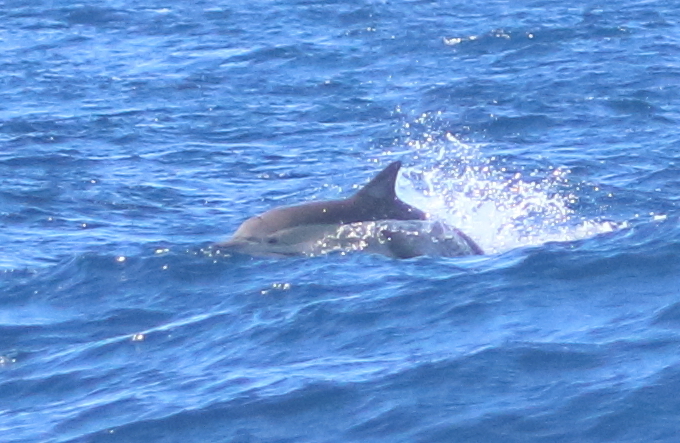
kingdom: Animalia
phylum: Chordata
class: Mammalia
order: Cetacea
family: Delphinidae
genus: Delphinus
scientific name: Delphinus delphis
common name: Common dolphin
